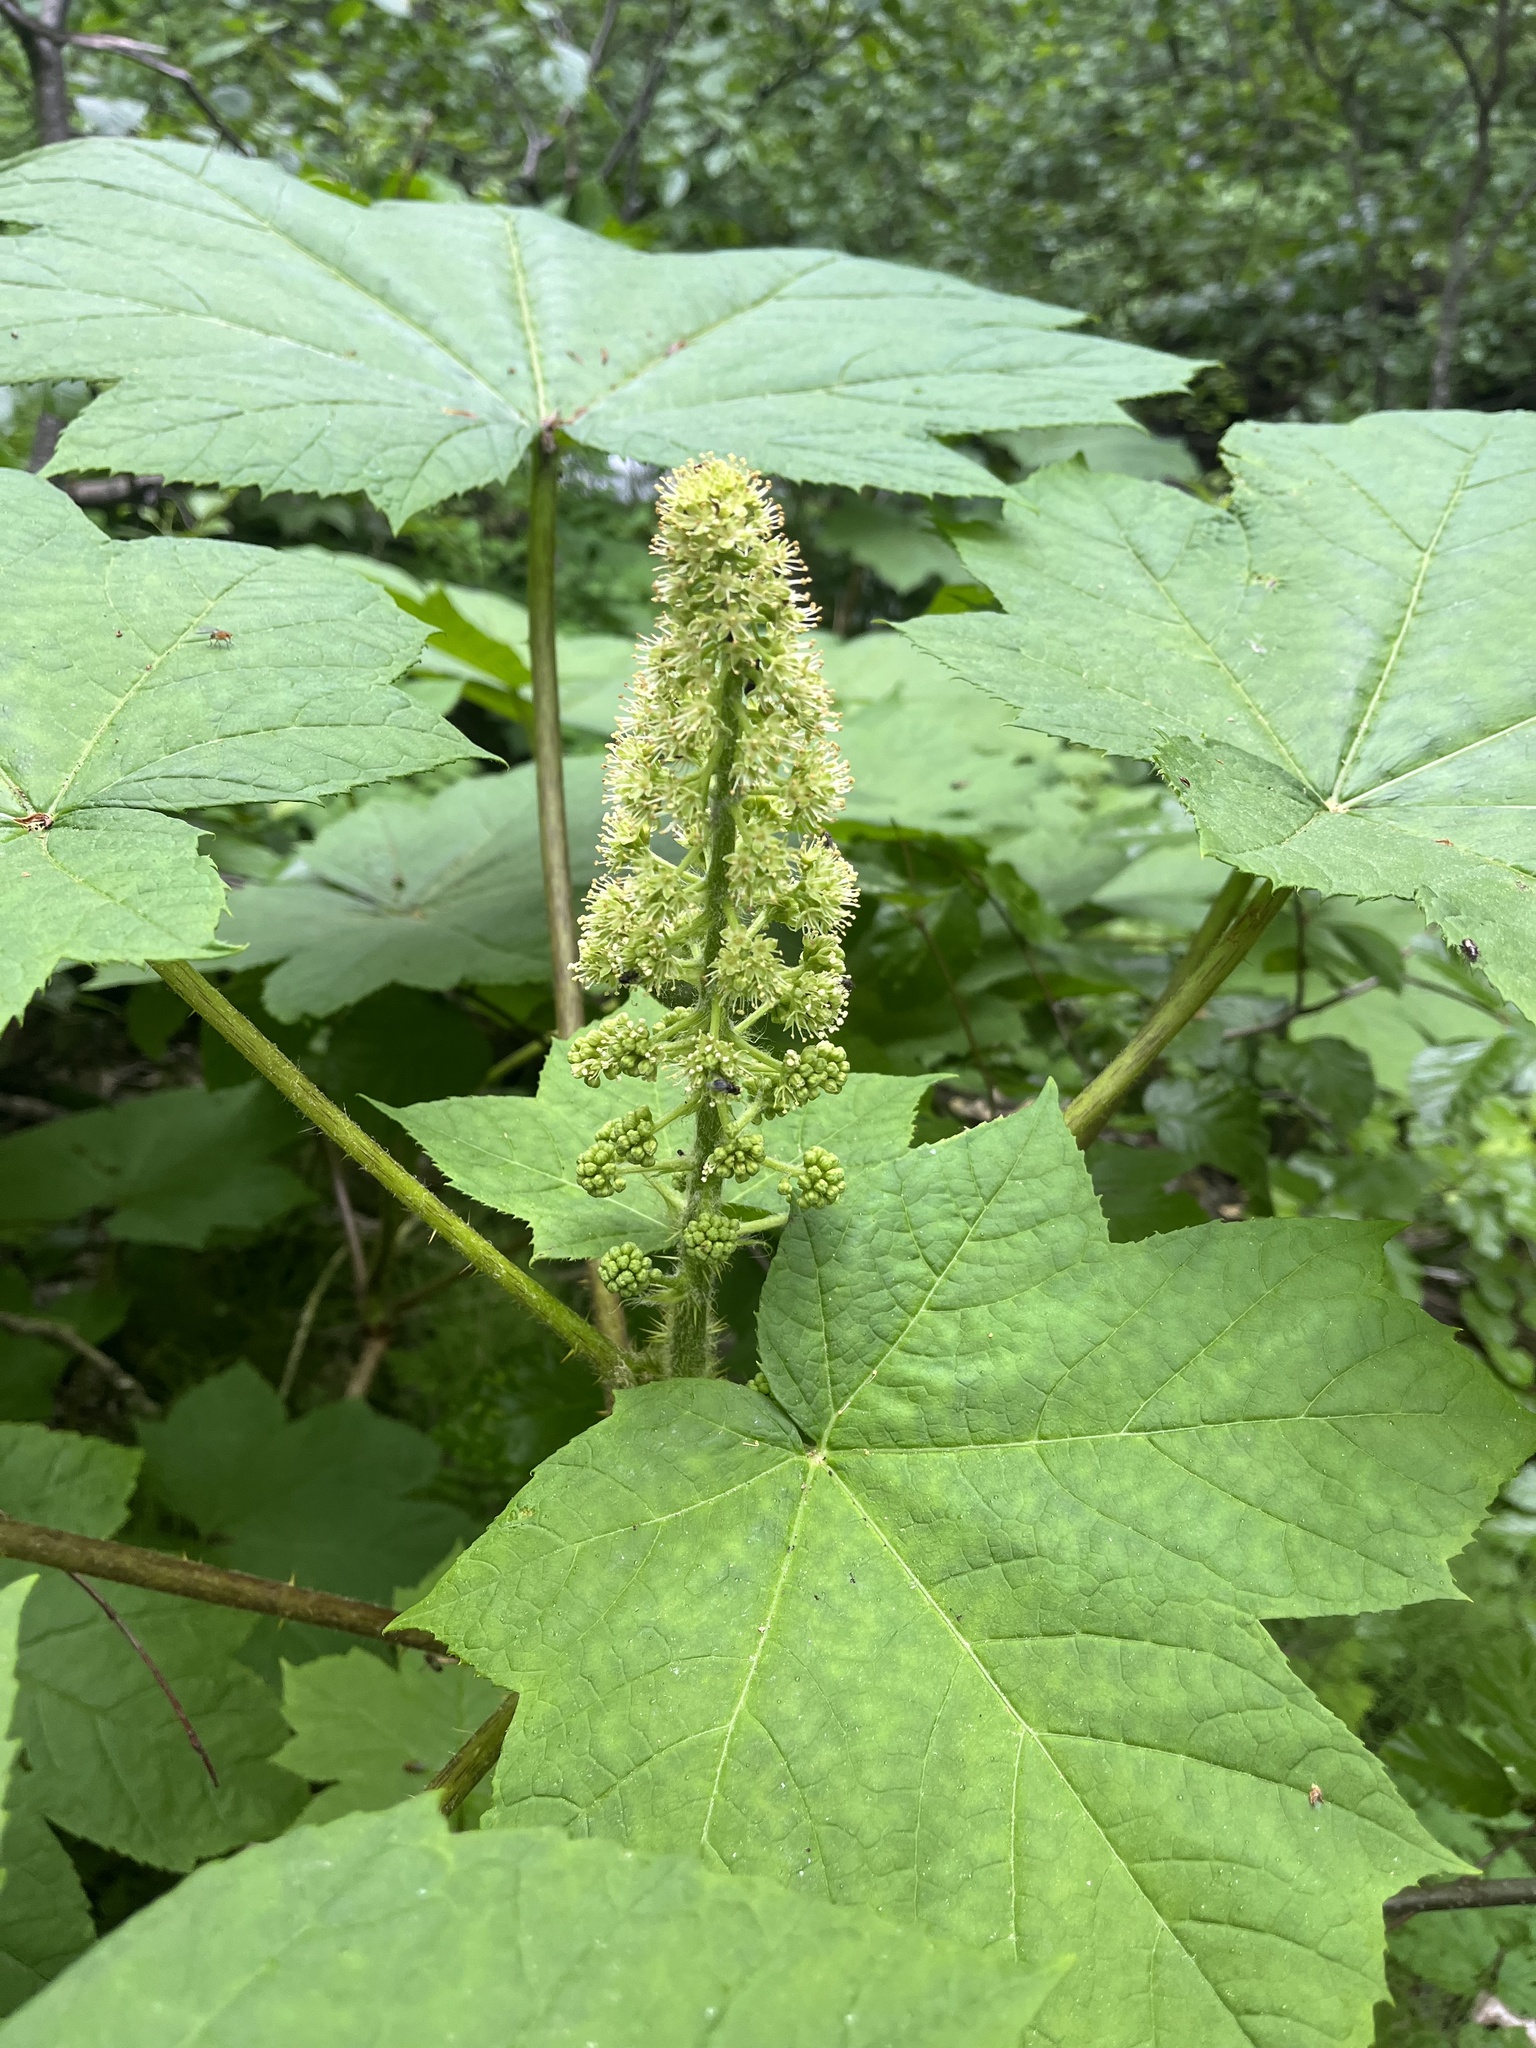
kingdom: Plantae
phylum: Tracheophyta
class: Magnoliopsida
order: Apiales
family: Araliaceae
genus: Oplopanax
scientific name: Oplopanax horridus
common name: Devil's walking-stick
